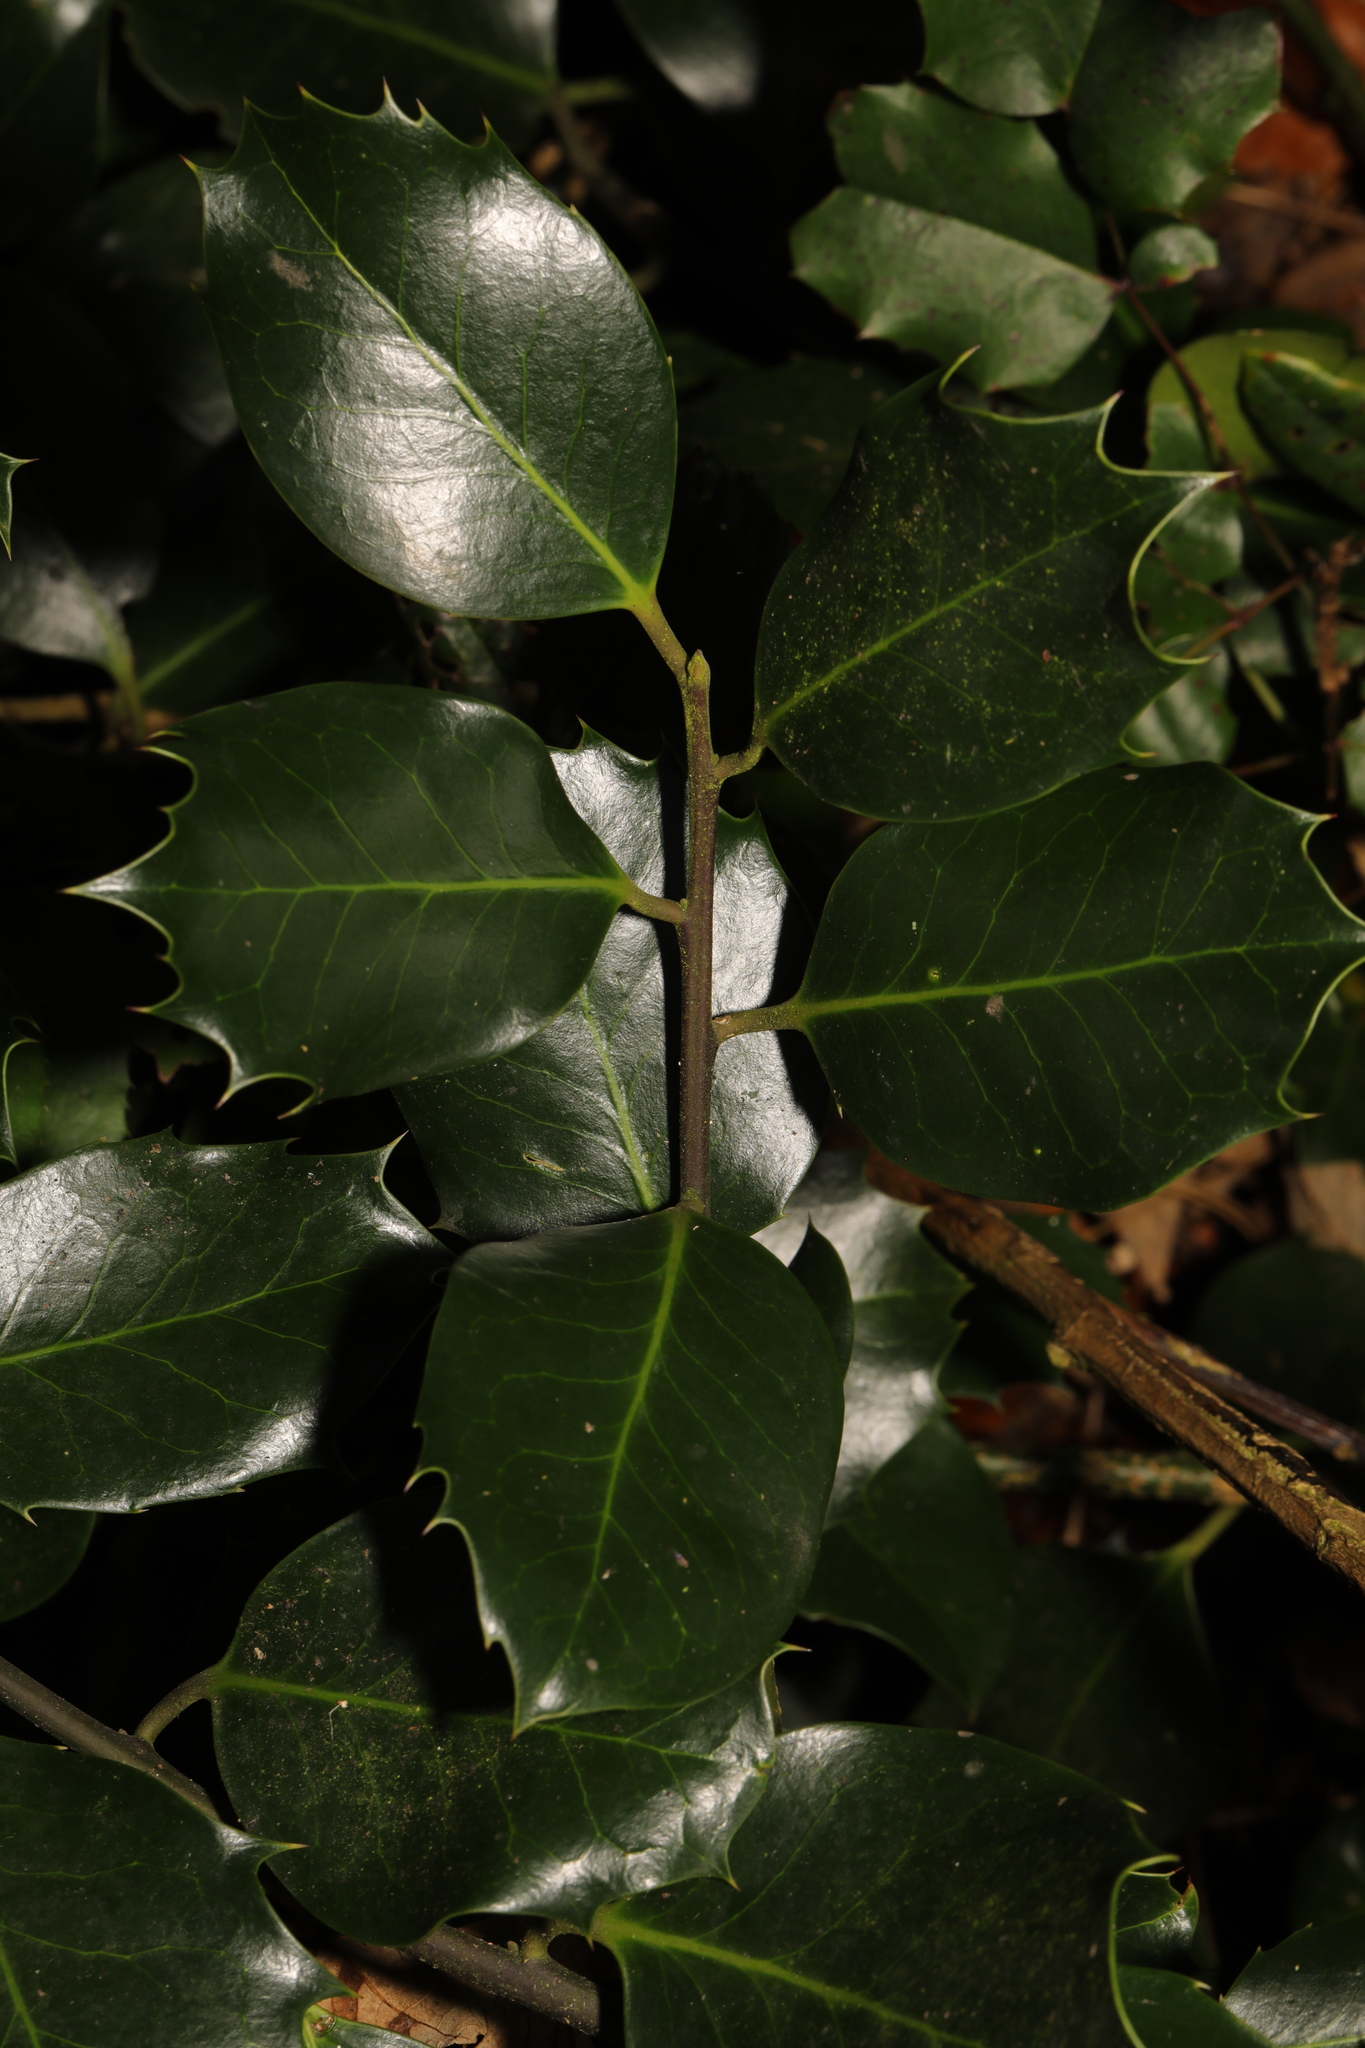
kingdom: Plantae
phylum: Tracheophyta
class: Magnoliopsida
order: Aquifoliales
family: Aquifoliaceae
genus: Ilex
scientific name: Ilex aquifolium
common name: English holly
